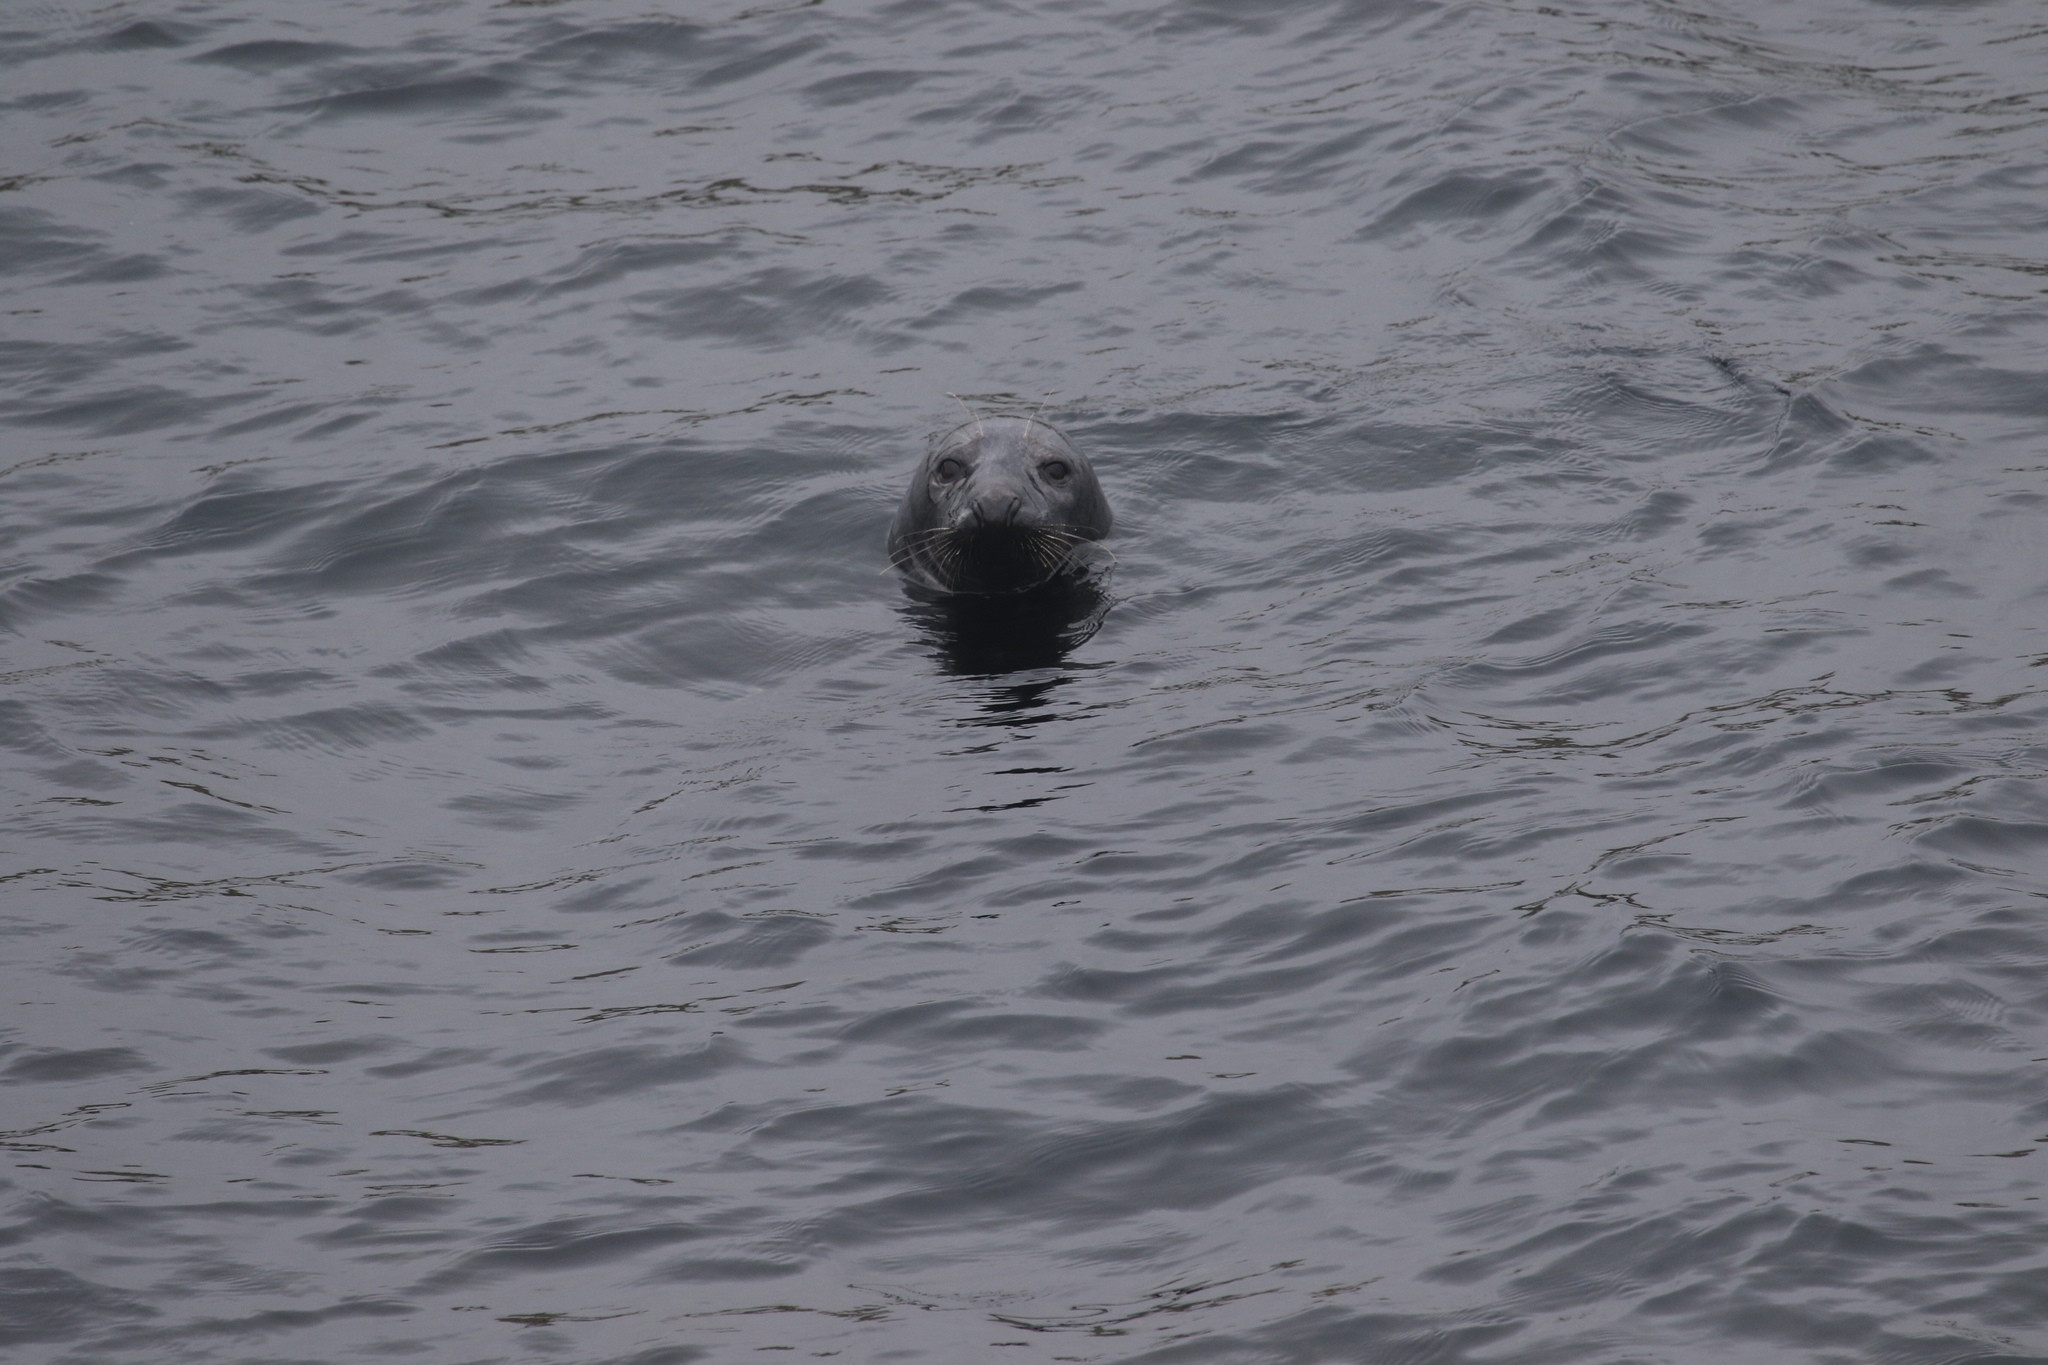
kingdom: Animalia
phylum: Chordata
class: Mammalia
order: Carnivora
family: Phocidae
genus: Halichoerus
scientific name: Halichoerus grypus
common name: Grey seal
